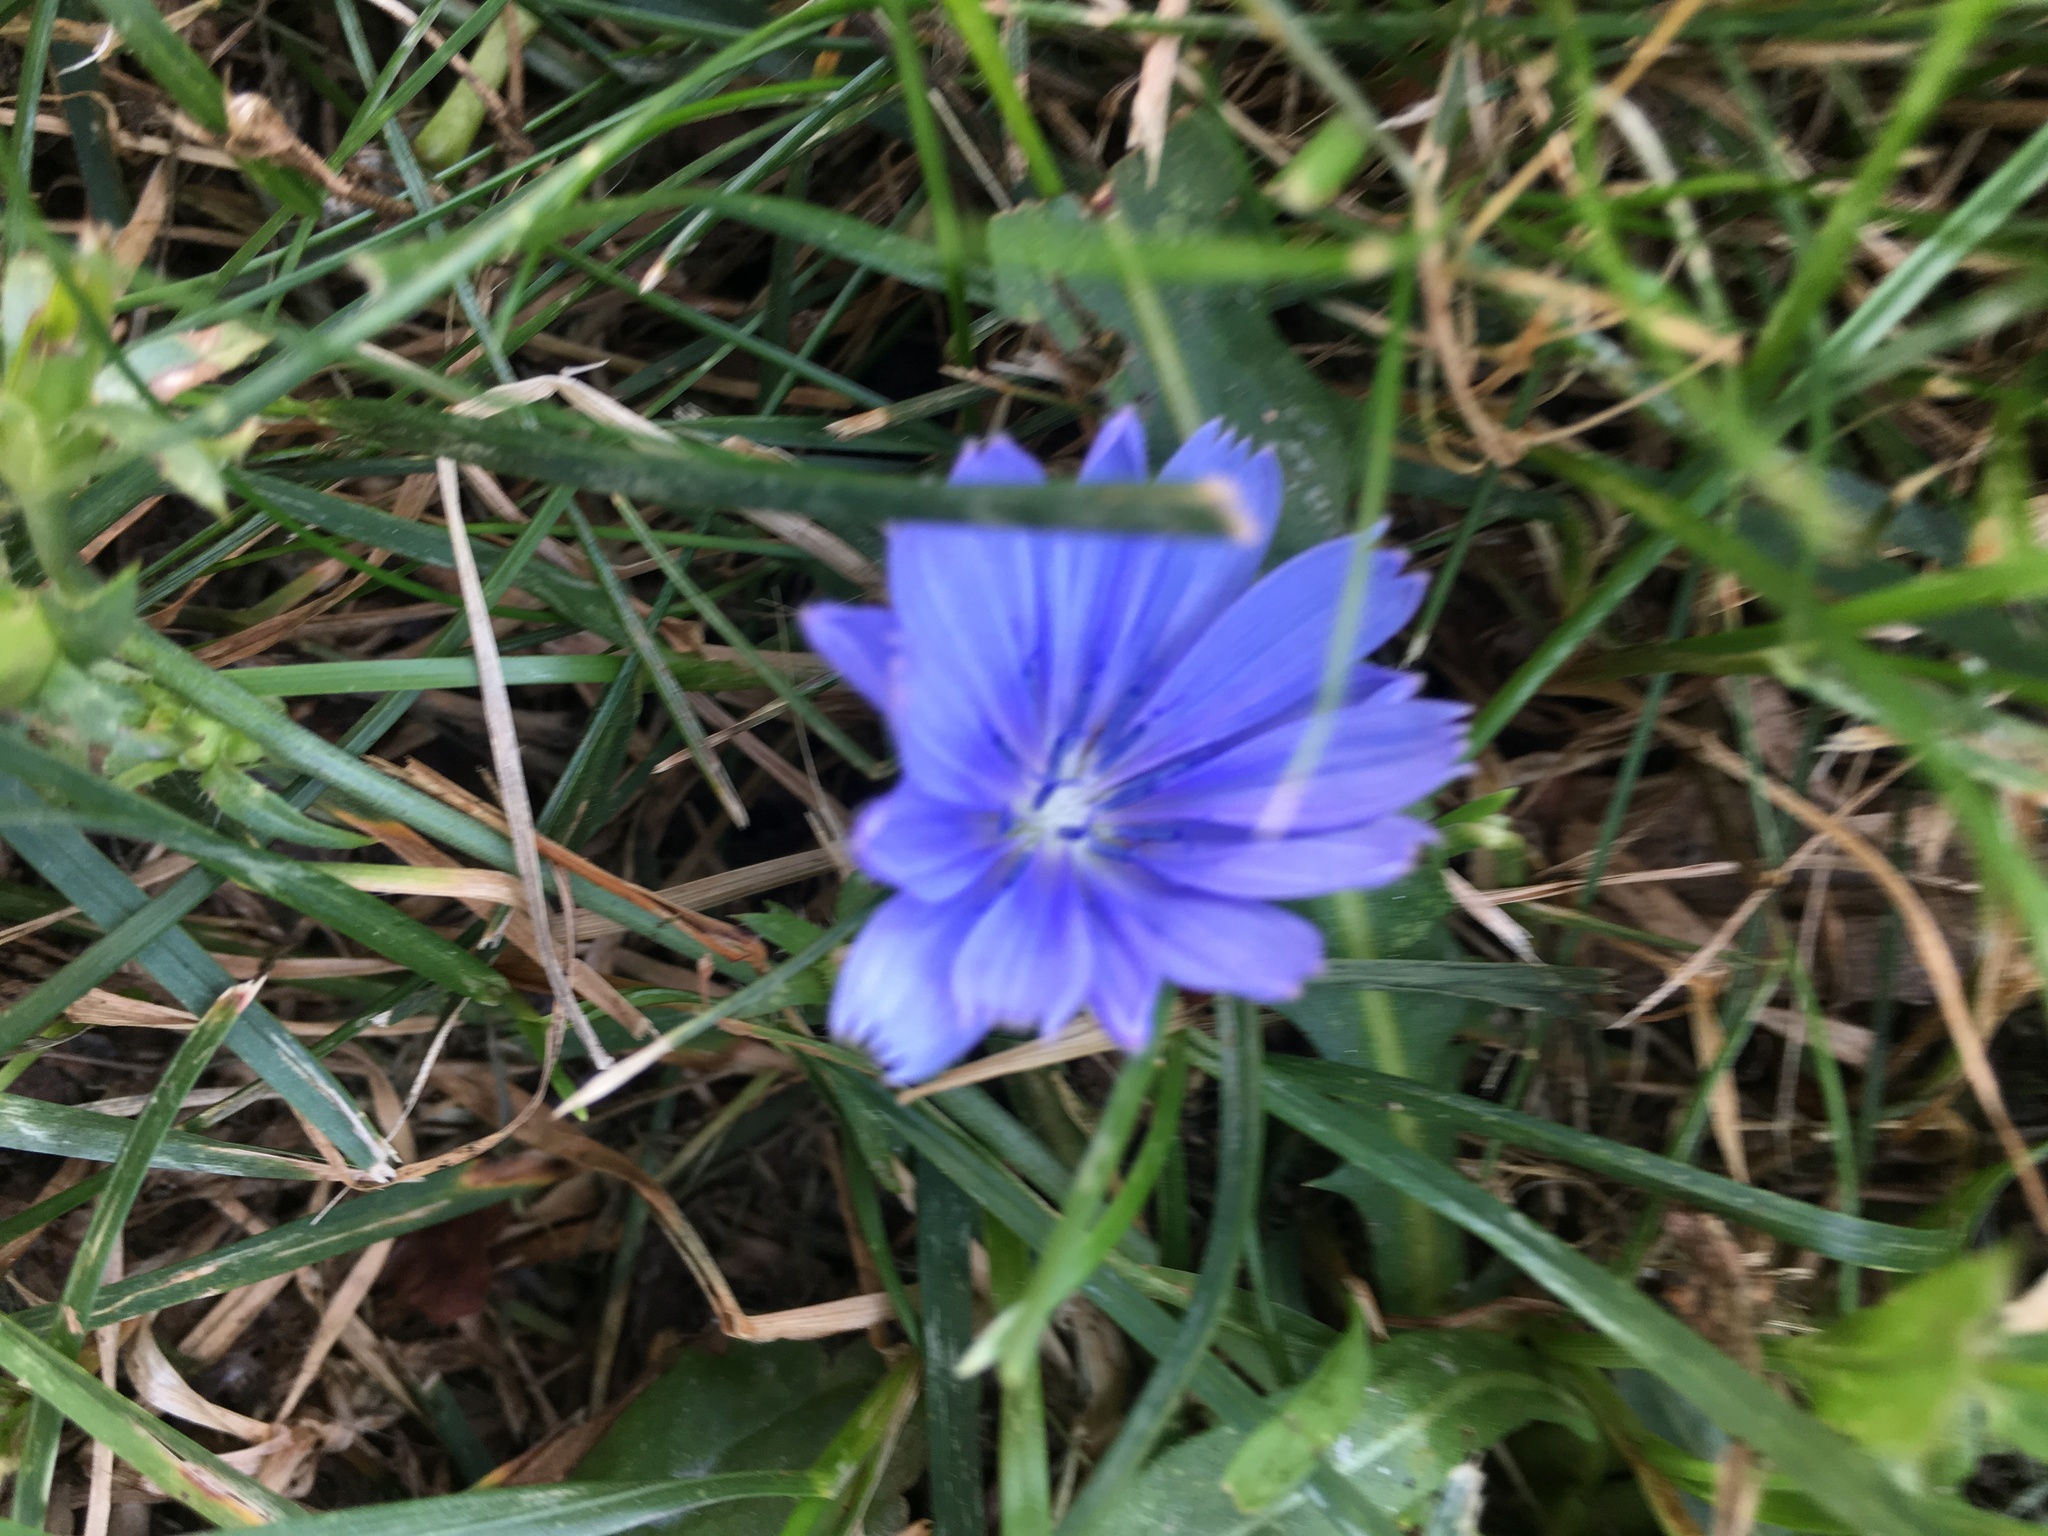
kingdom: Plantae
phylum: Tracheophyta
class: Magnoliopsida
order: Asterales
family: Asteraceae
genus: Cichorium
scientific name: Cichorium intybus
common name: Chicory
